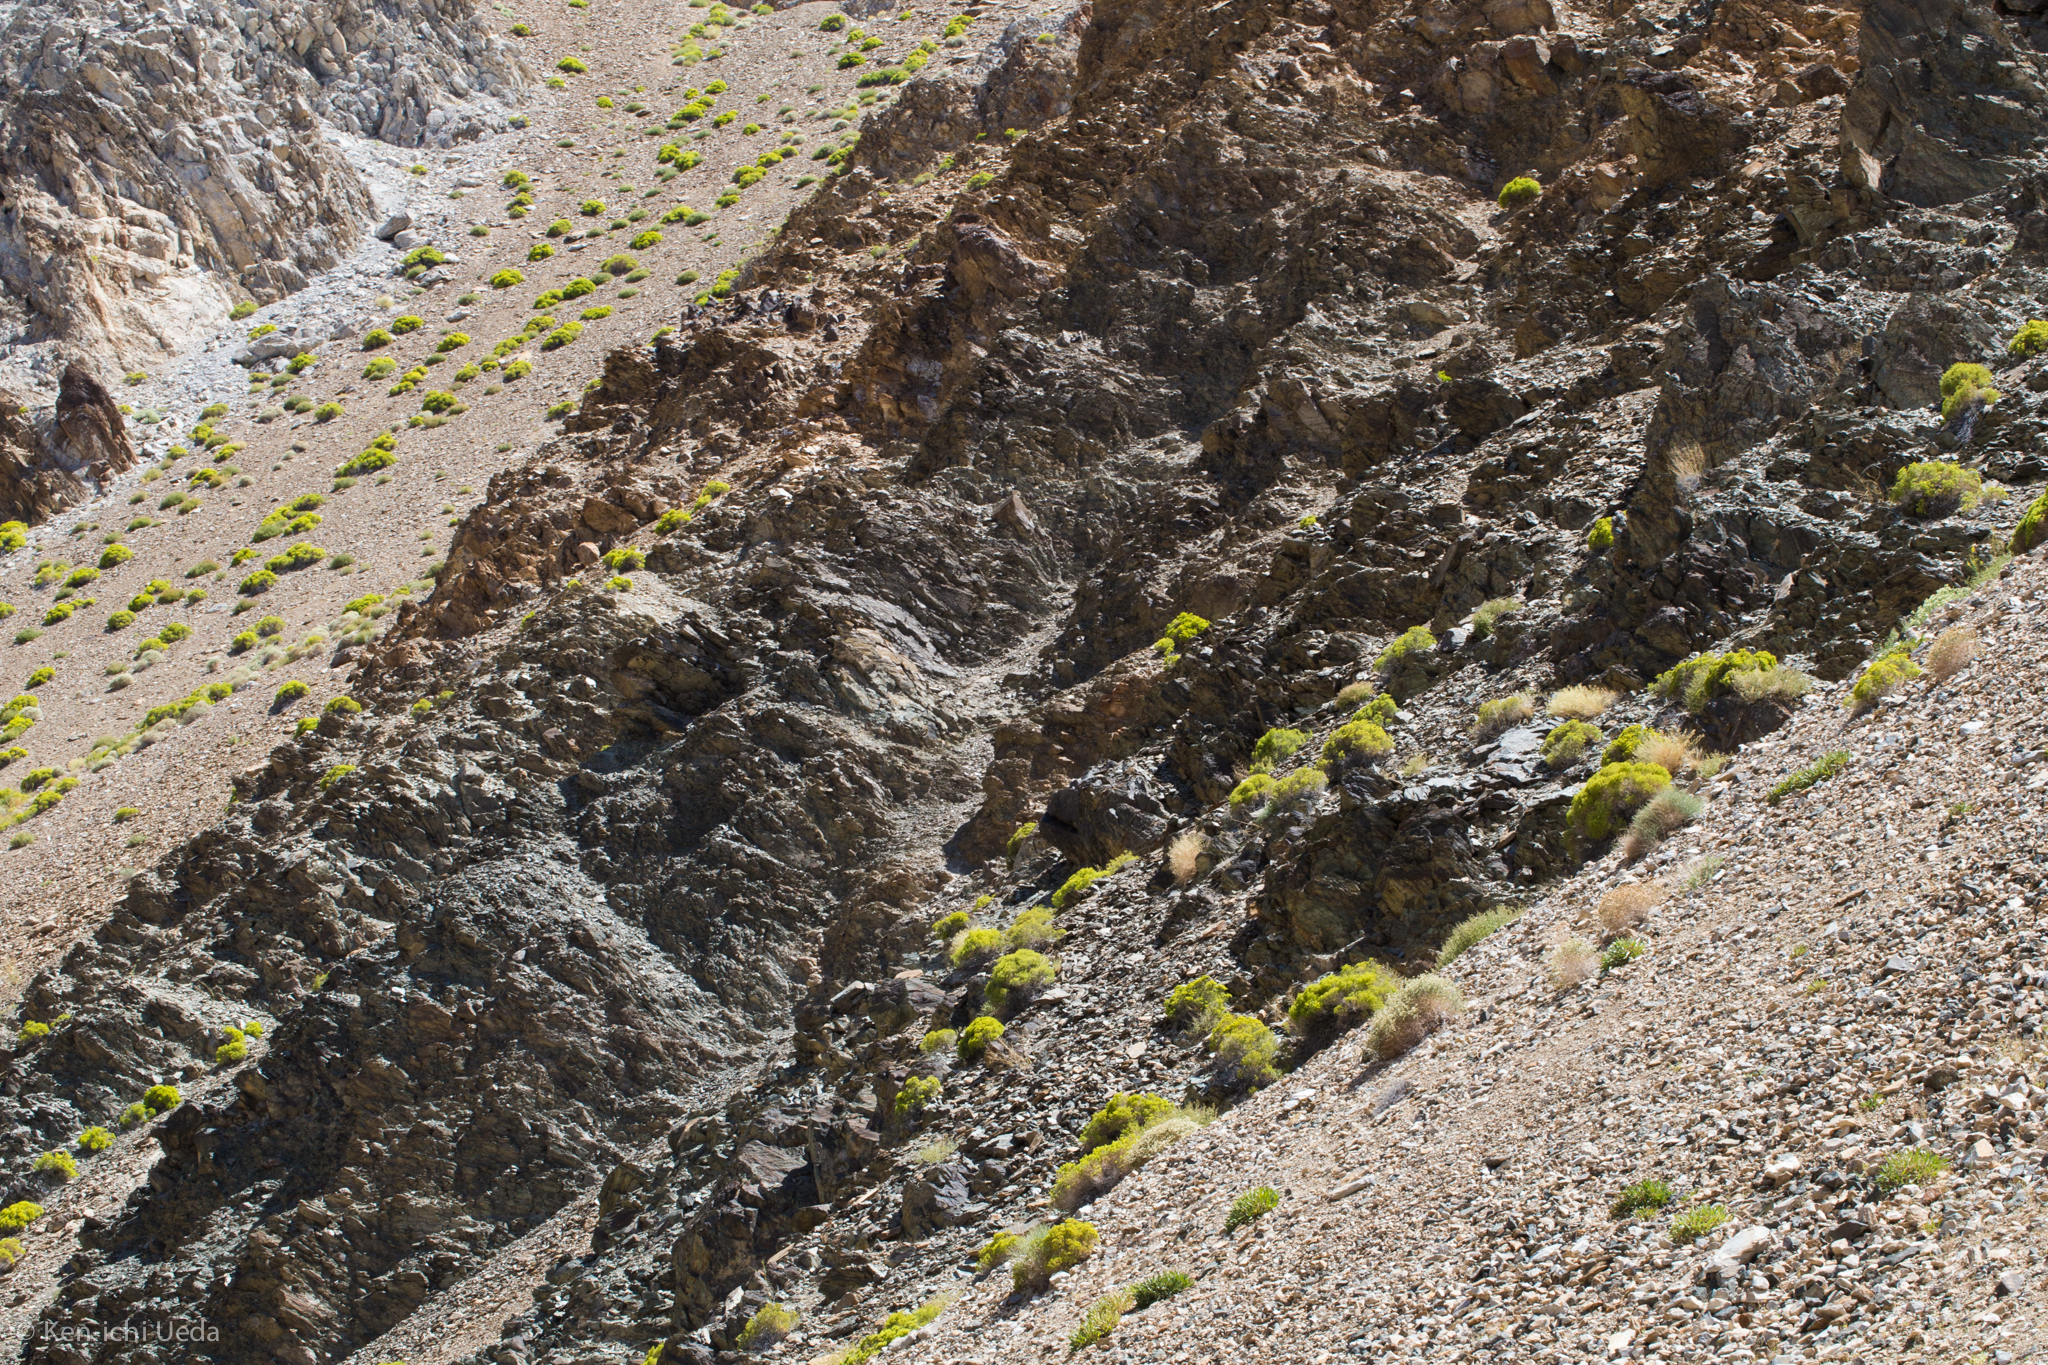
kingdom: Plantae
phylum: Tracheophyta
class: Magnoliopsida
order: Caryophyllales
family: Polygonaceae
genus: Dedeckera
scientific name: Dedeckera eurekensis
